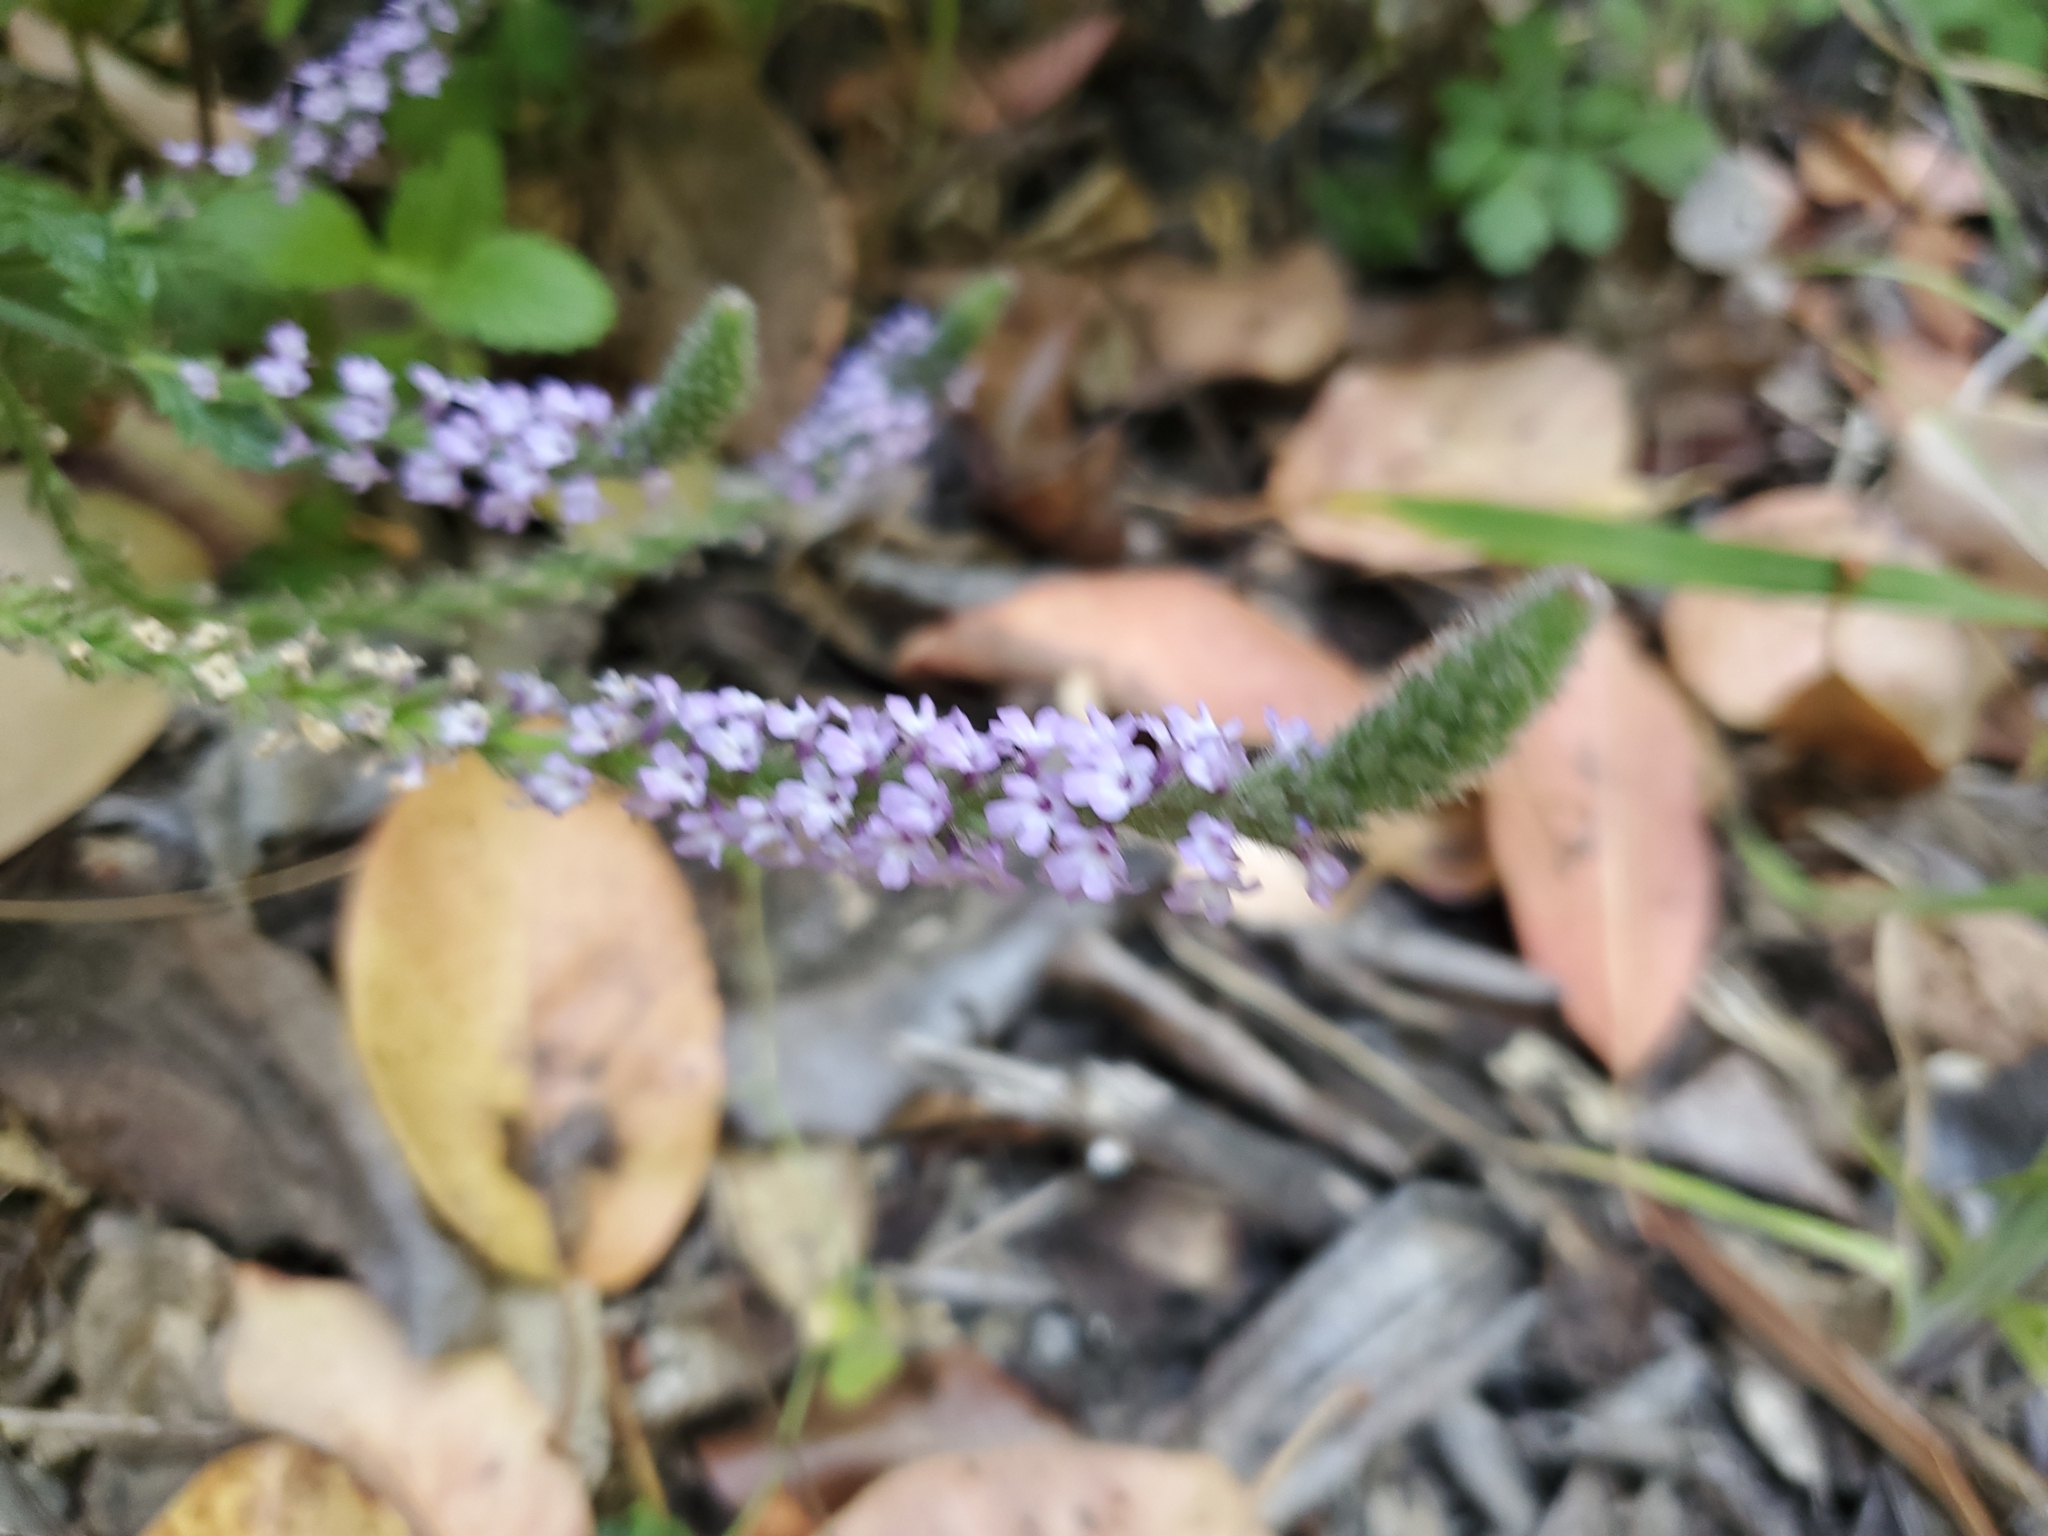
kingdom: Plantae
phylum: Tracheophyta
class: Magnoliopsida
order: Lamiales
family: Verbenaceae
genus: Verbena
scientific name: Verbena lasiostachys
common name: Vervain
